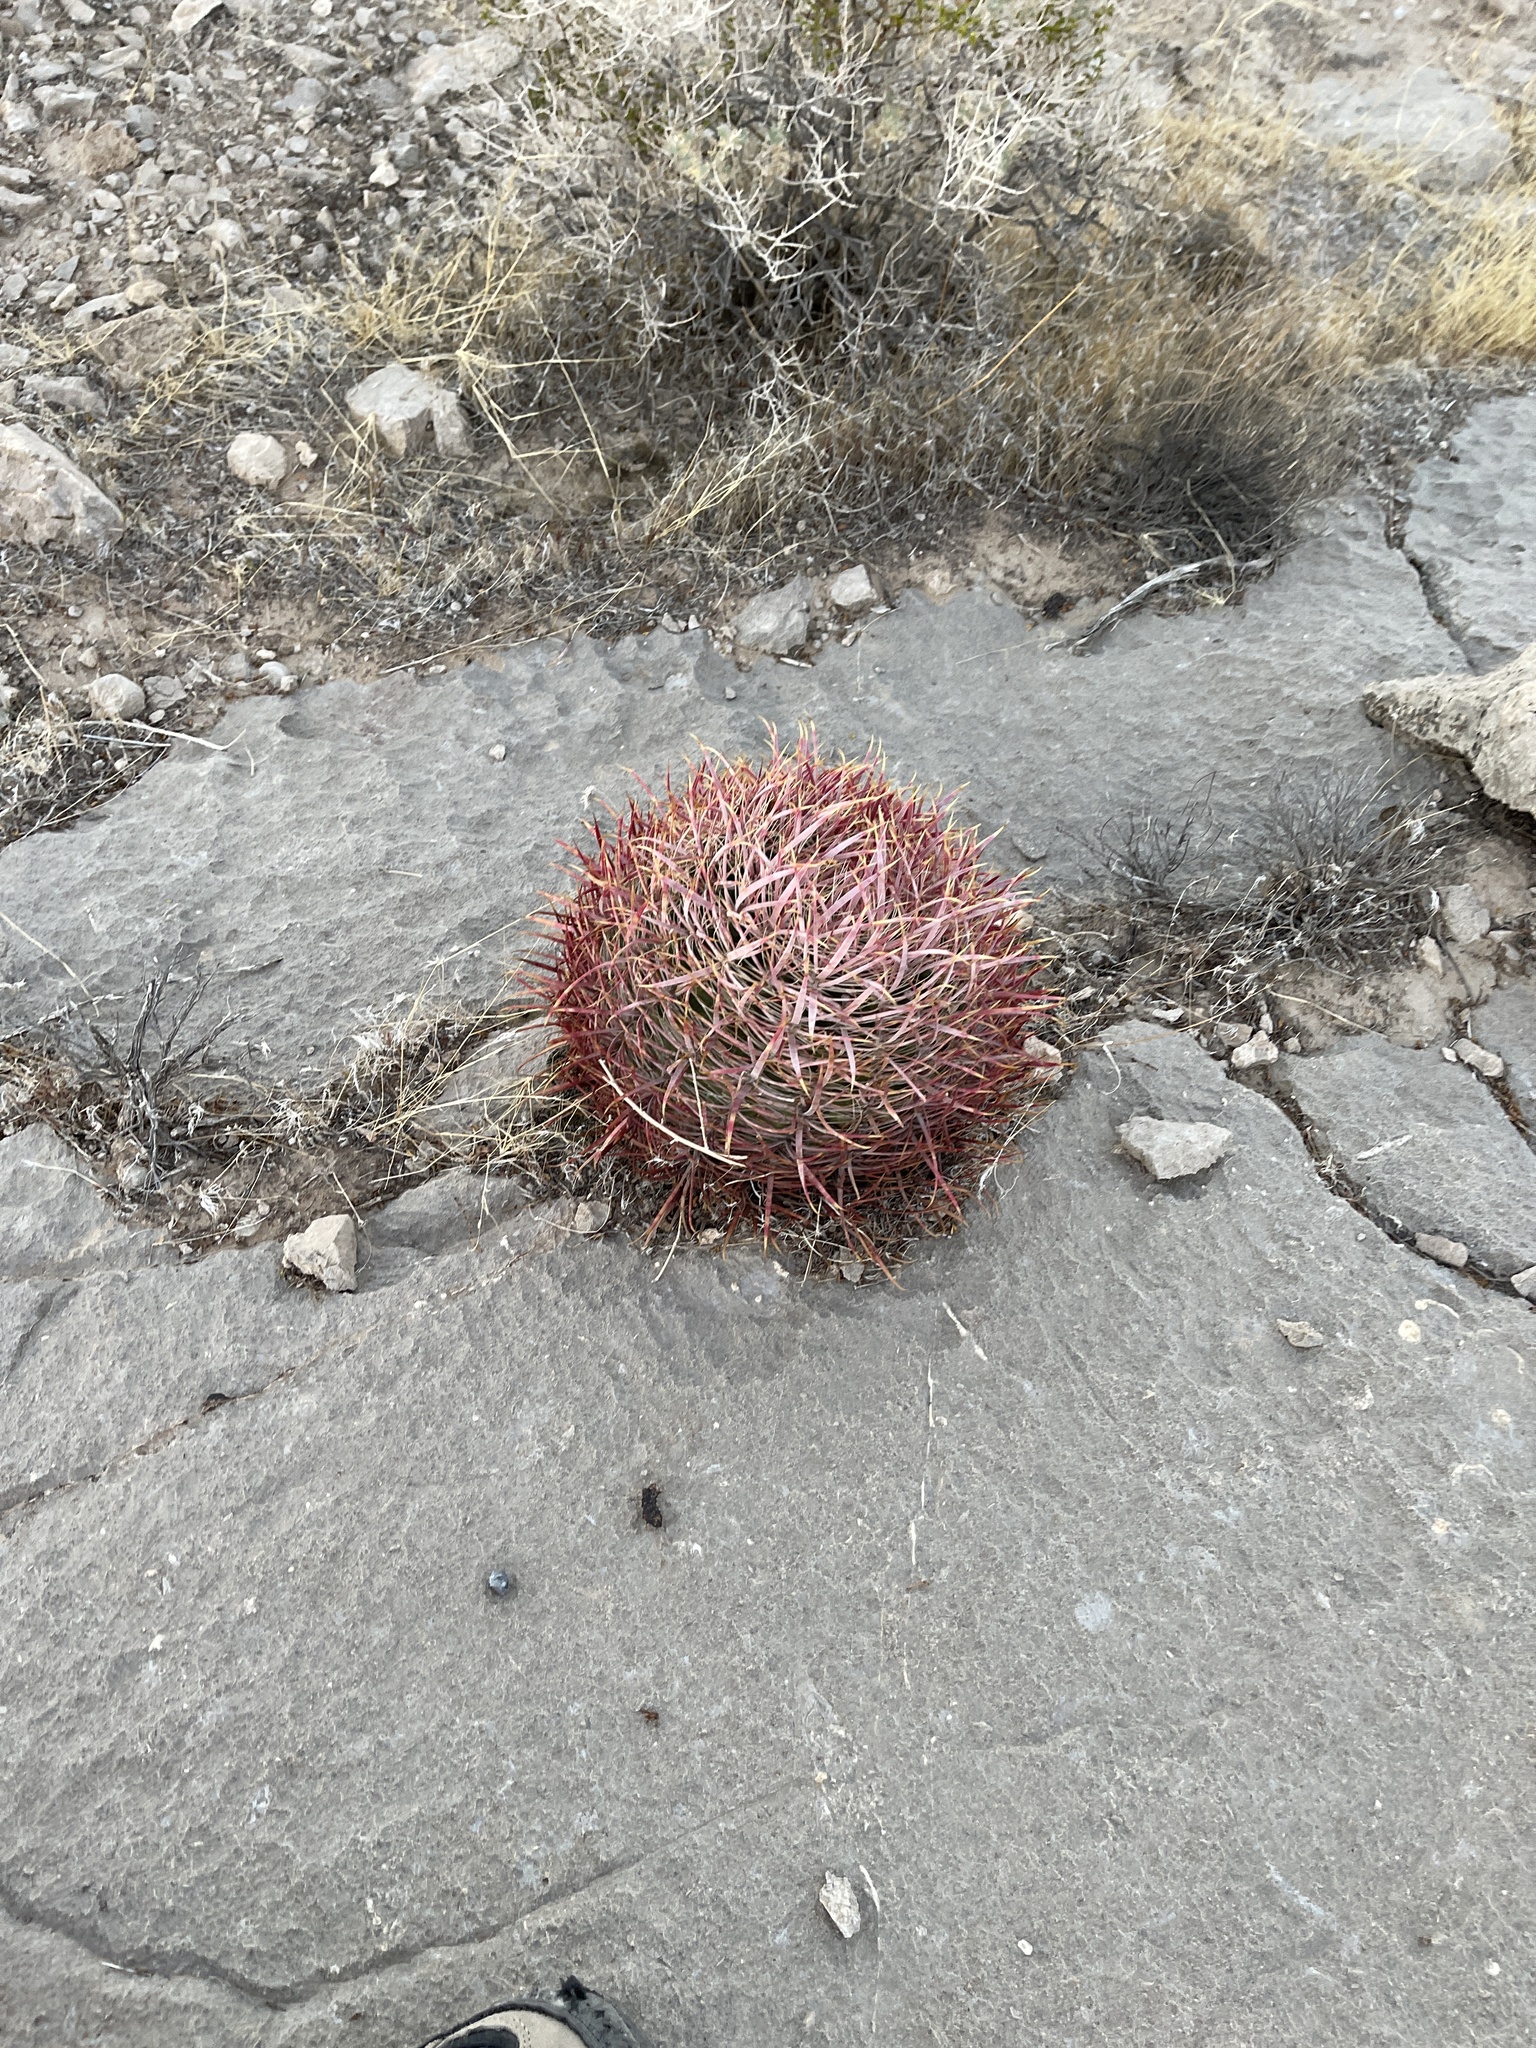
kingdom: Plantae
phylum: Tracheophyta
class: Magnoliopsida
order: Caryophyllales
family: Cactaceae
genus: Ferocactus
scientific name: Ferocactus cylindraceus
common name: California barrel cactus
